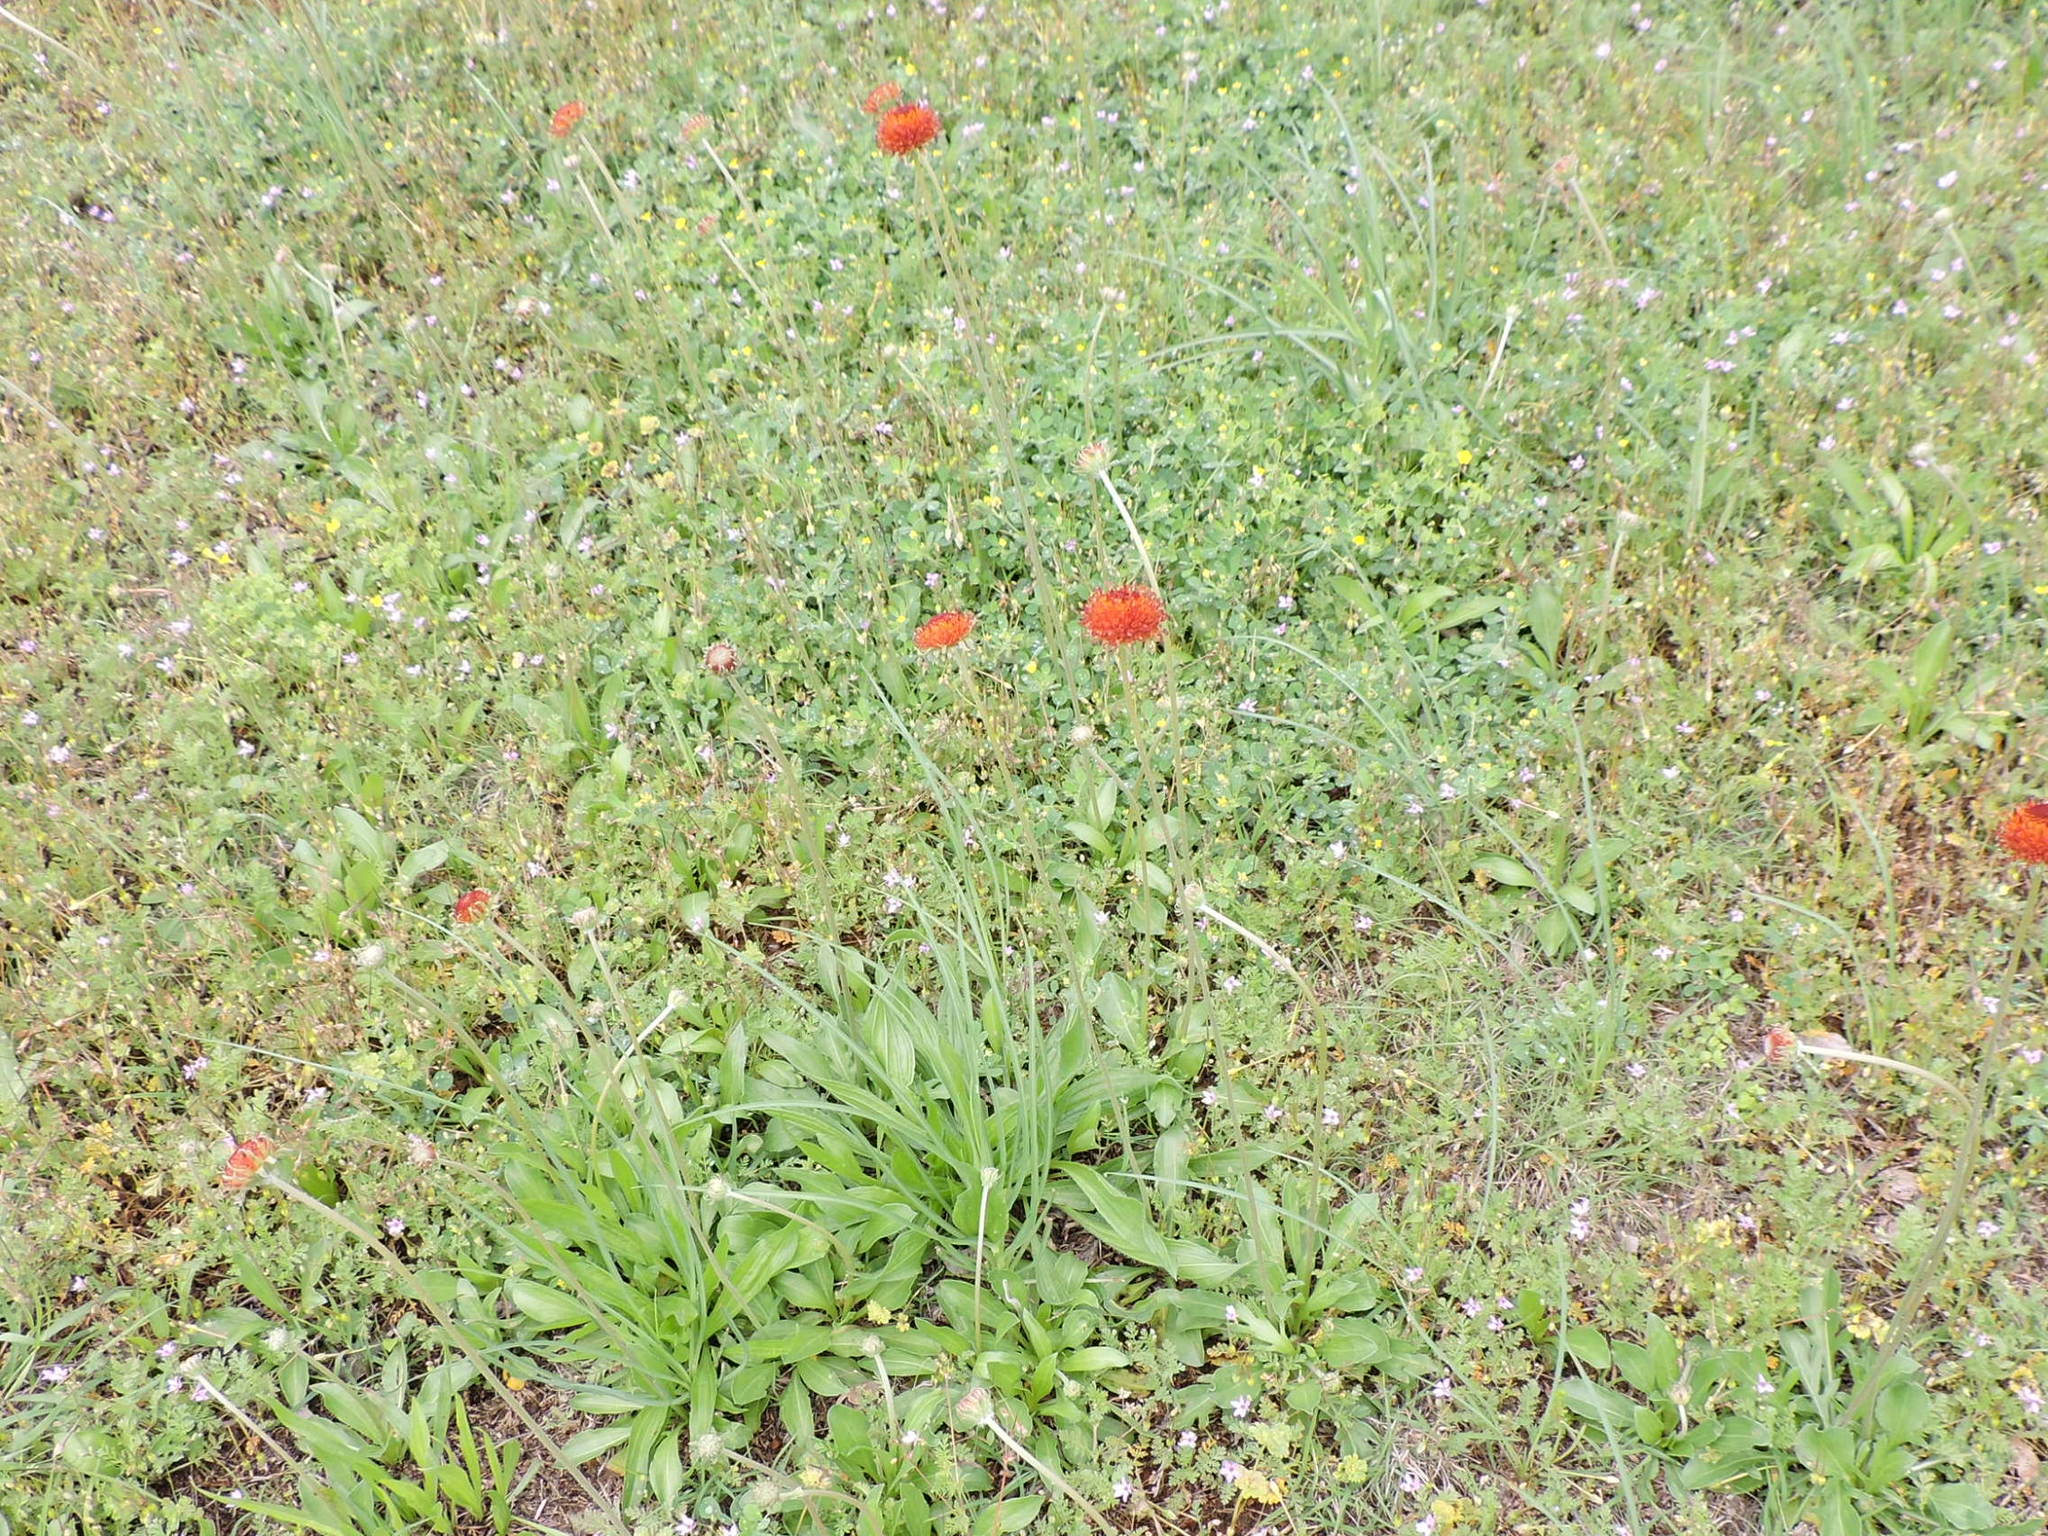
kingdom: Plantae
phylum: Tracheophyta
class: Magnoliopsida
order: Asterales
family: Asteraceae
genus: Gaillardia
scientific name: Gaillardia suavis
